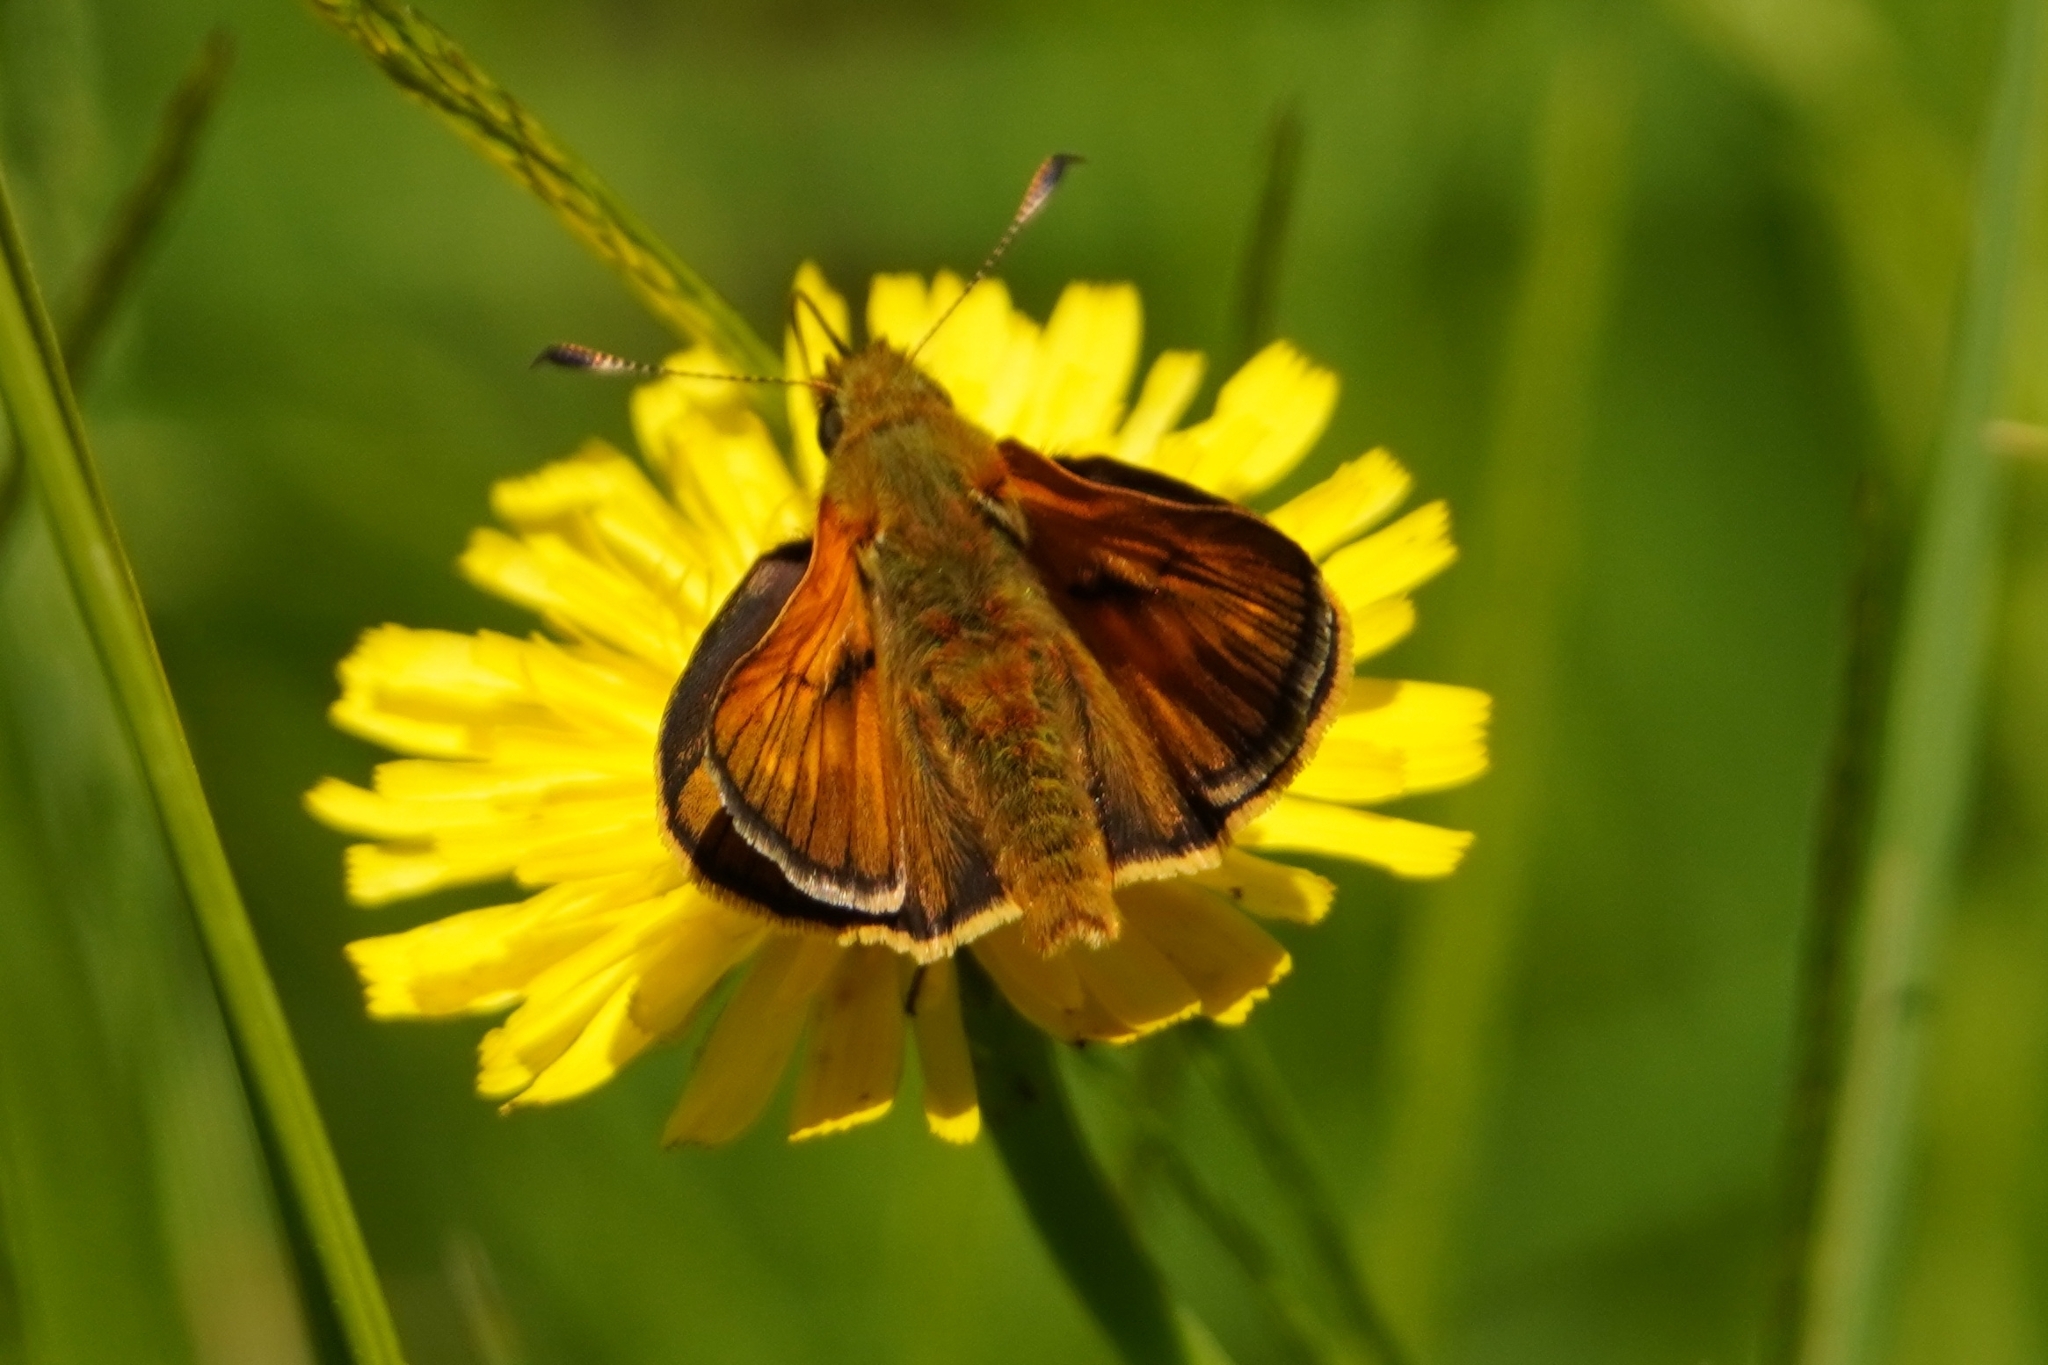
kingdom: Animalia
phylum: Arthropoda
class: Insecta
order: Lepidoptera
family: Hesperiidae
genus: Ochlodes
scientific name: Ochlodes venata
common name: Large skipper
